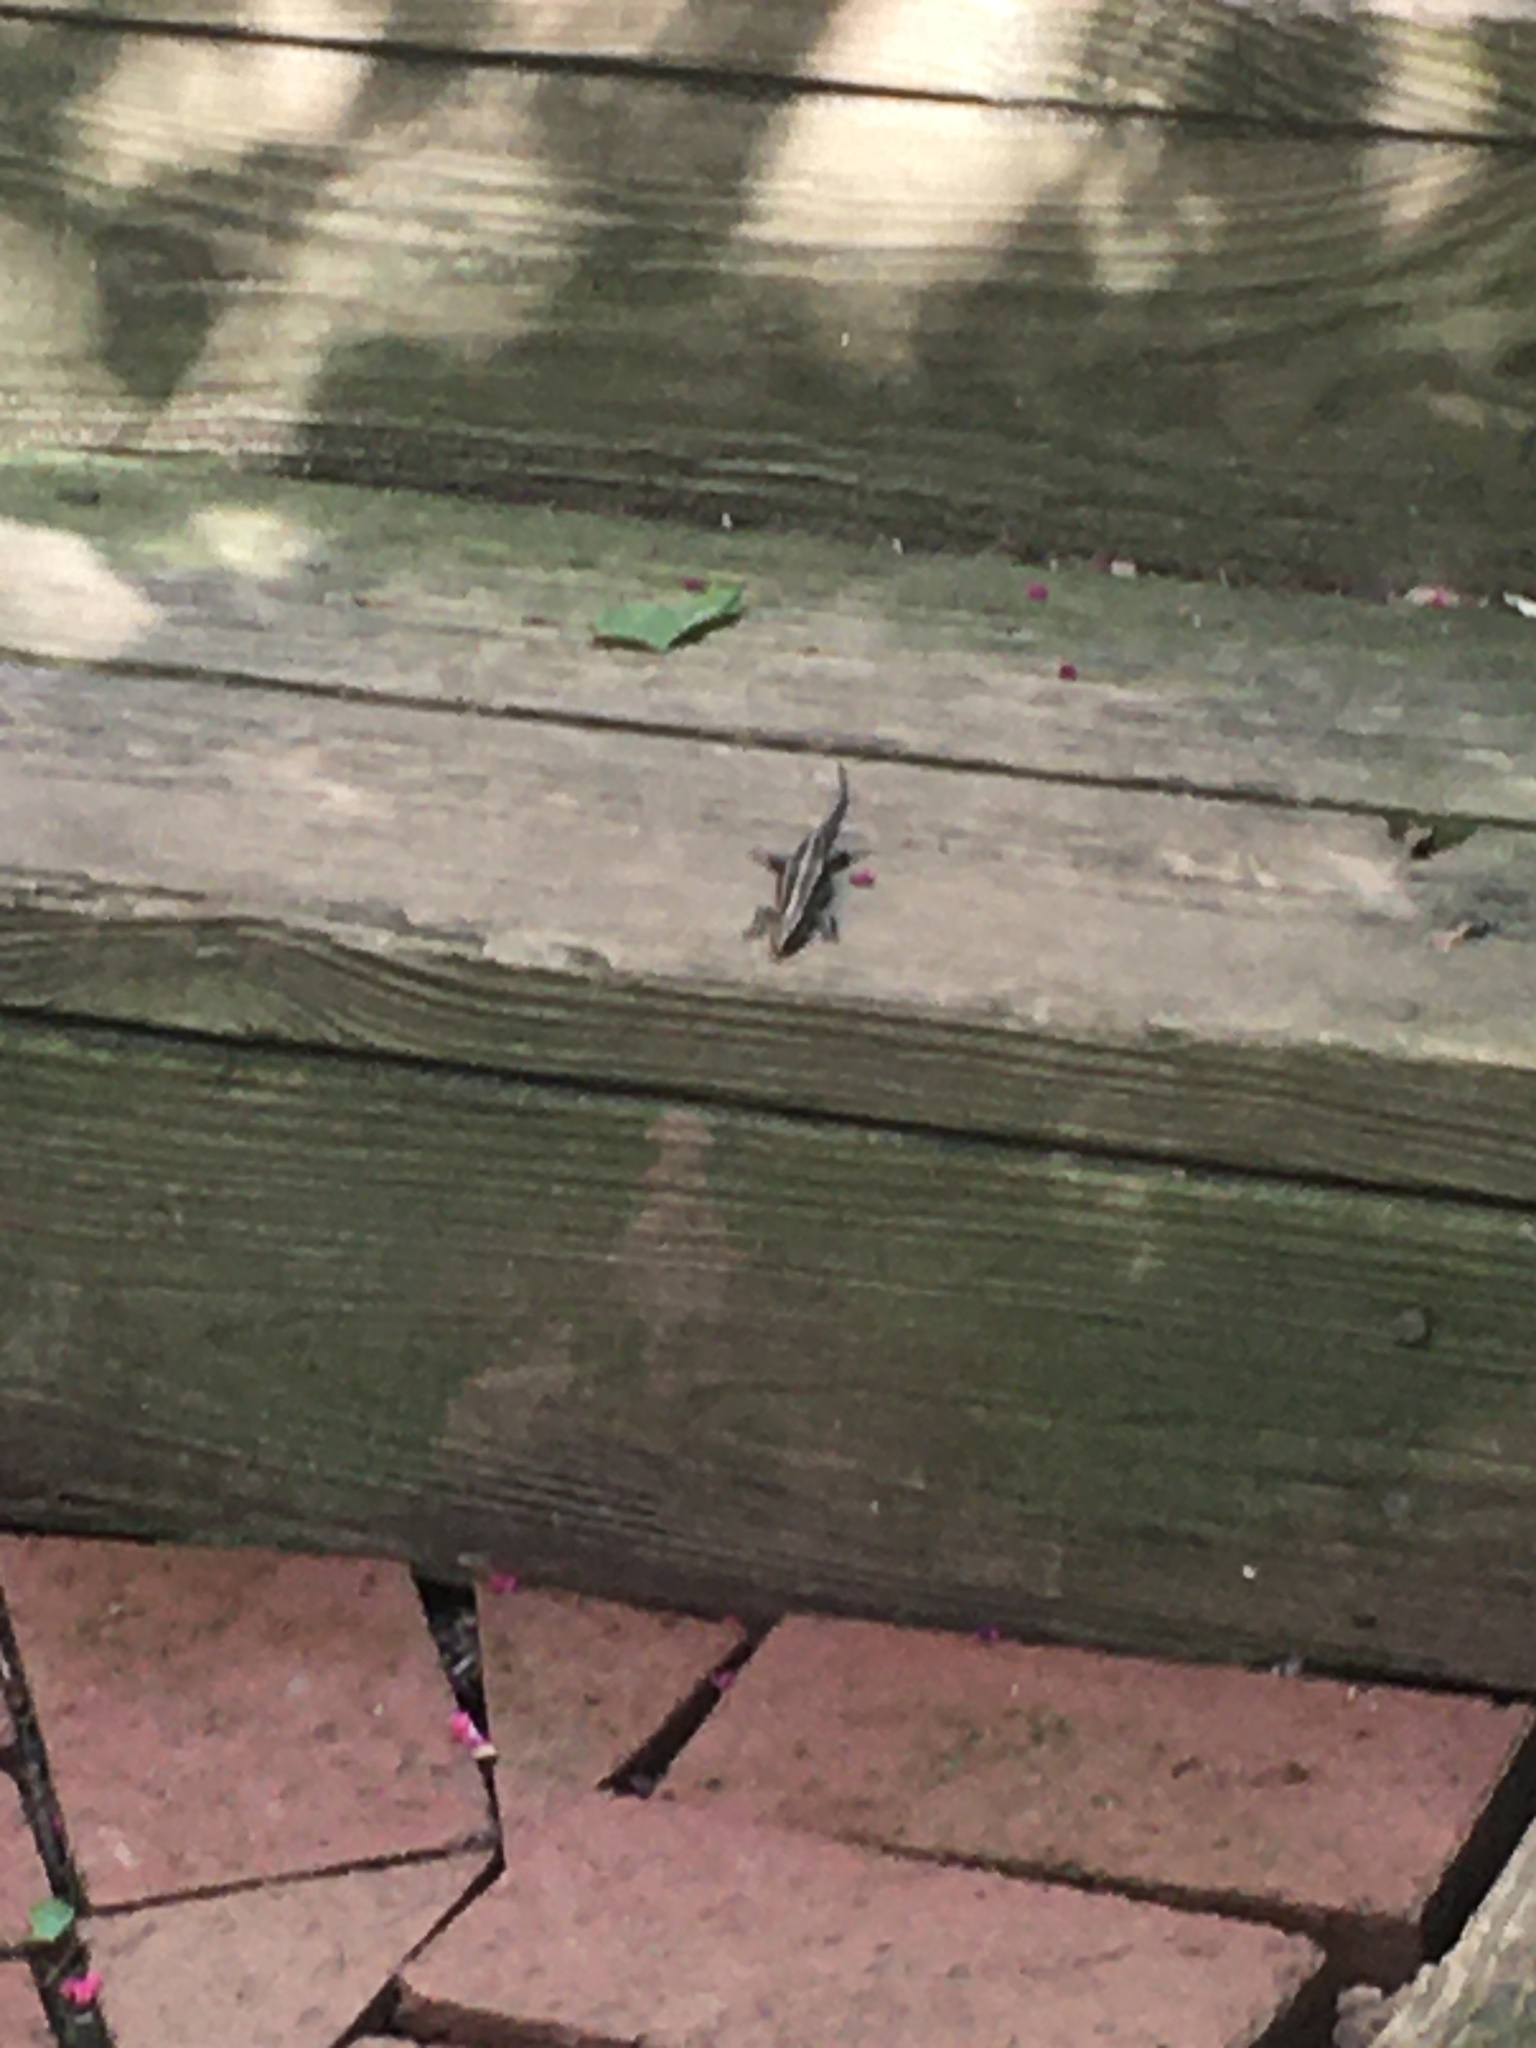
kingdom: Animalia
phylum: Chordata
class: Squamata
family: Scincidae
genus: Plestiodon
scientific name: Plestiodon fasciatus
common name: Five-lined skink
